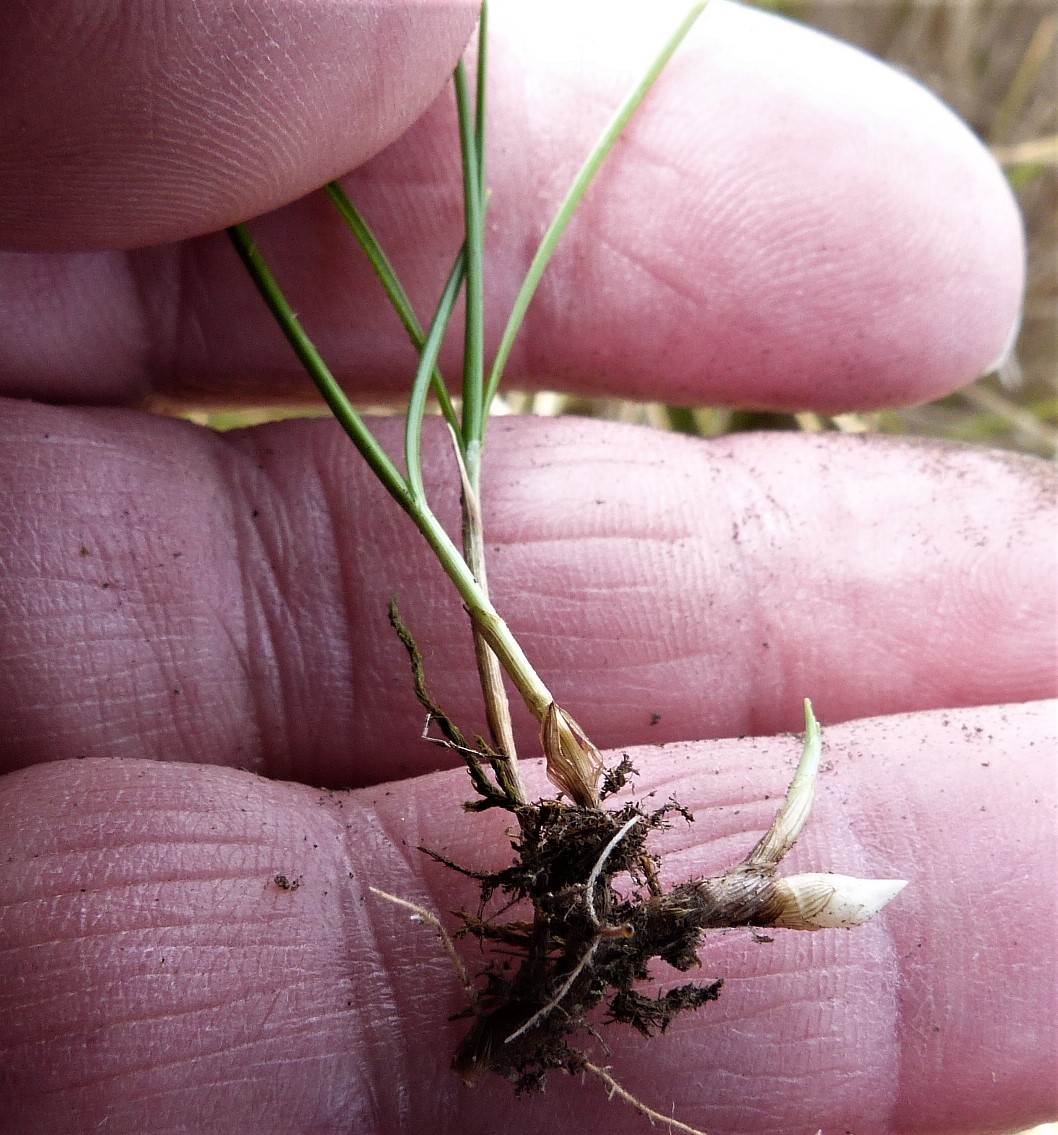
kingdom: Plantae
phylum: Tracheophyta
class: Liliopsida
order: Poales
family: Poaceae
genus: Zoysia
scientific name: Zoysia minima
